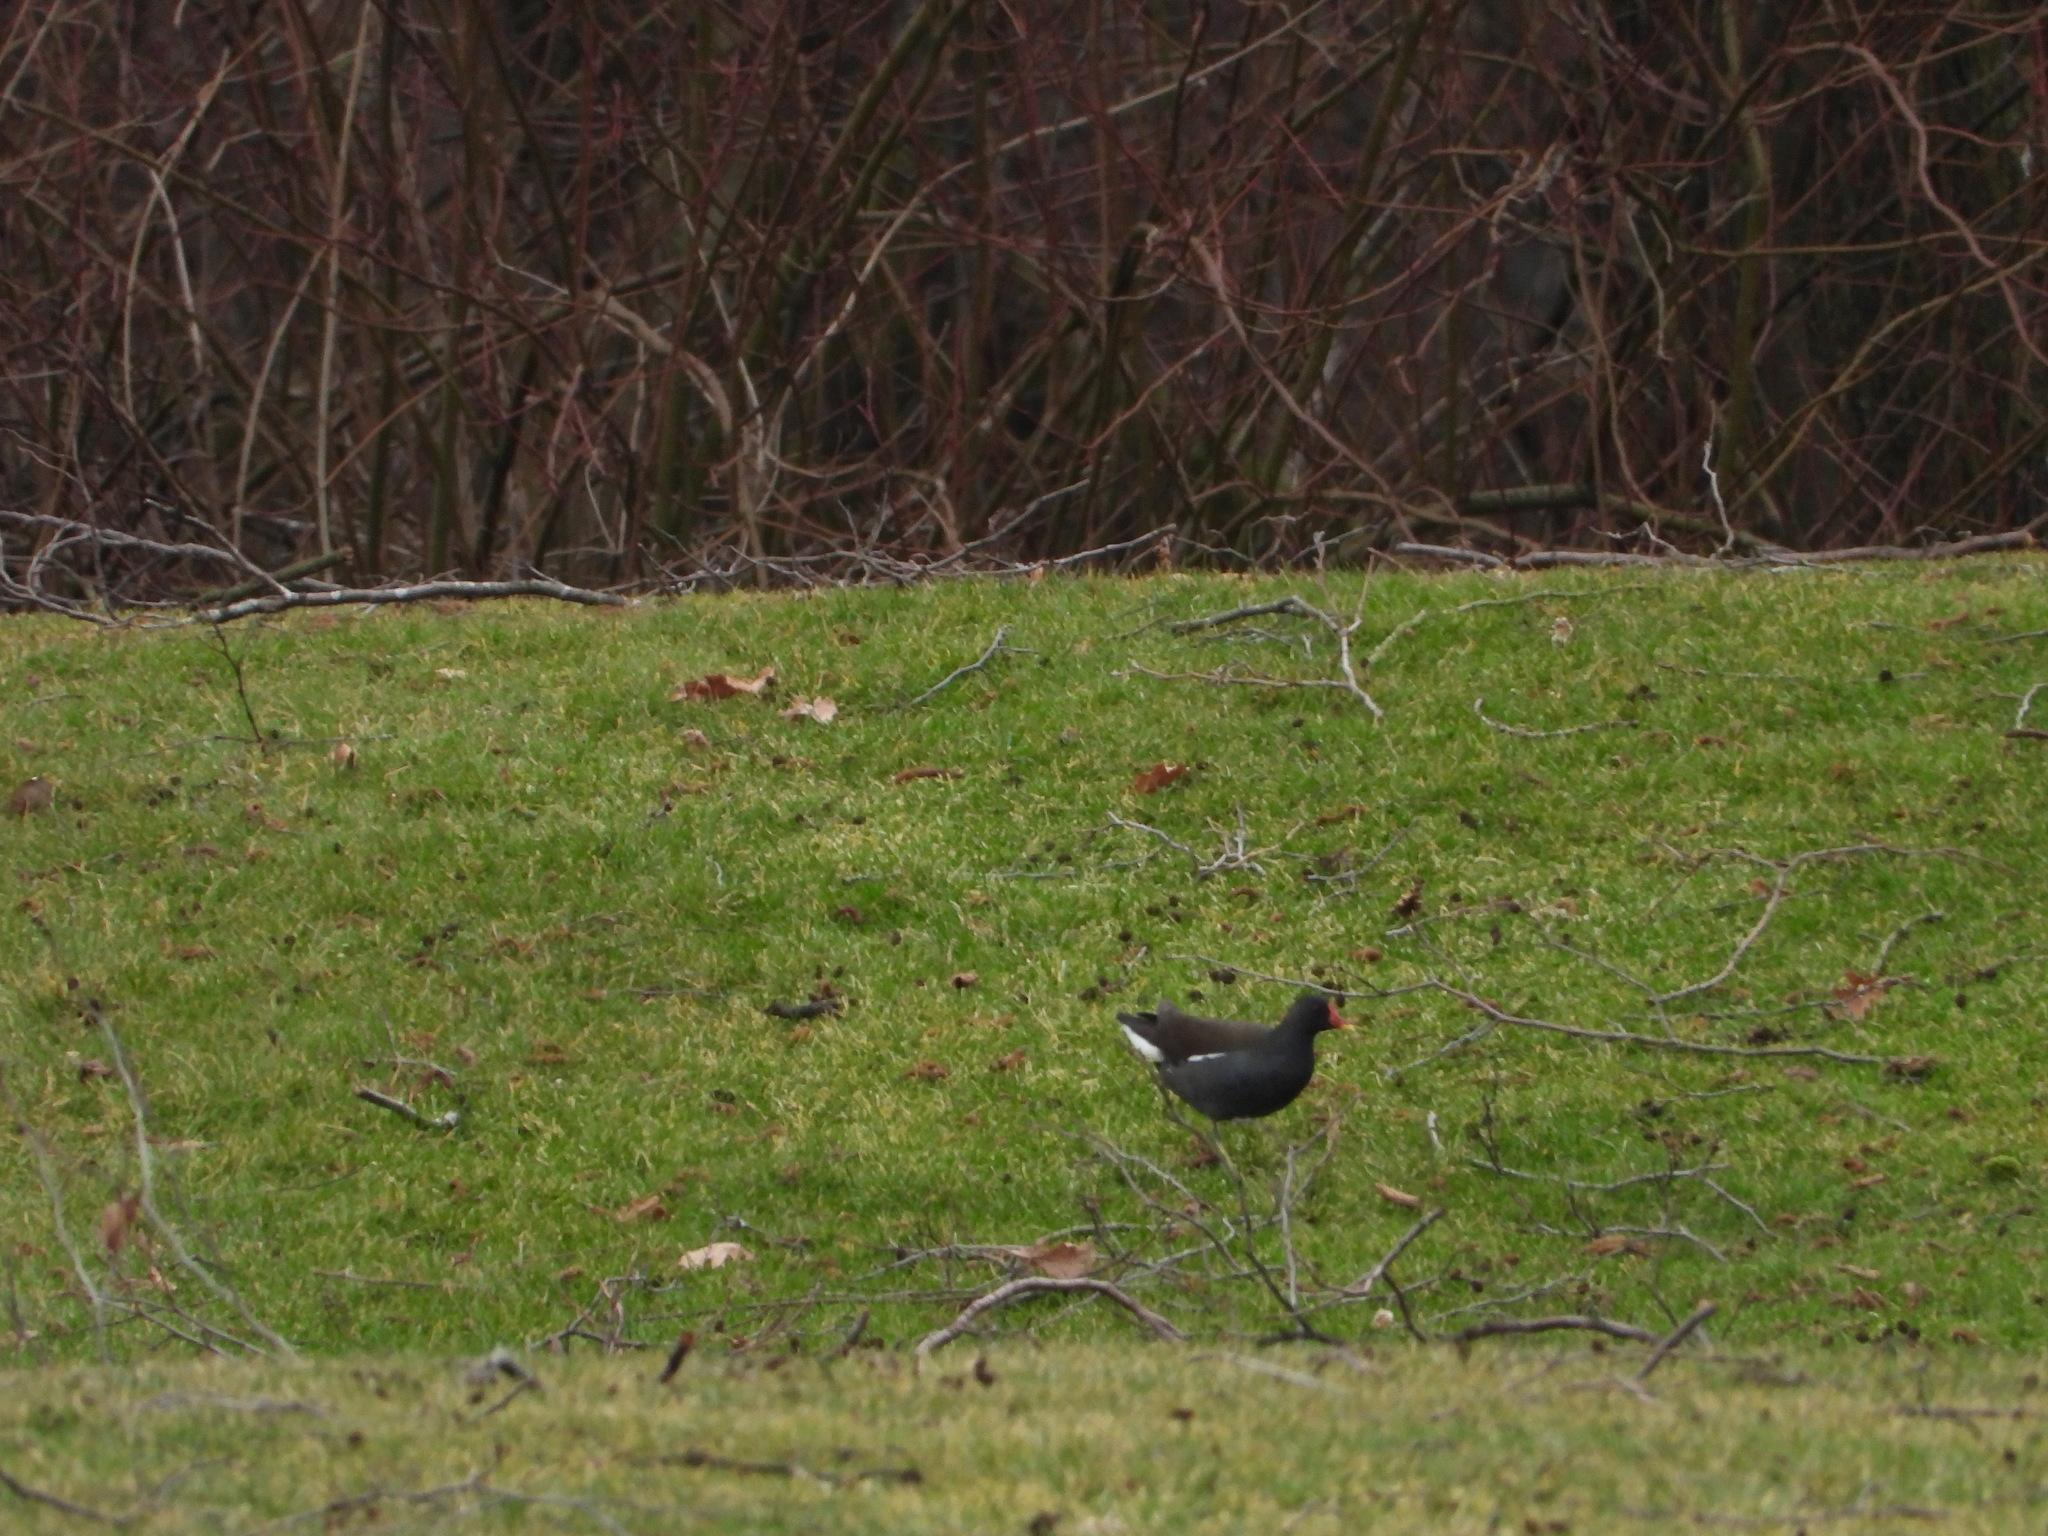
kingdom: Animalia
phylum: Chordata
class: Aves
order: Gruiformes
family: Rallidae
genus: Gallinula
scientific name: Gallinula chloropus
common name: Common moorhen
